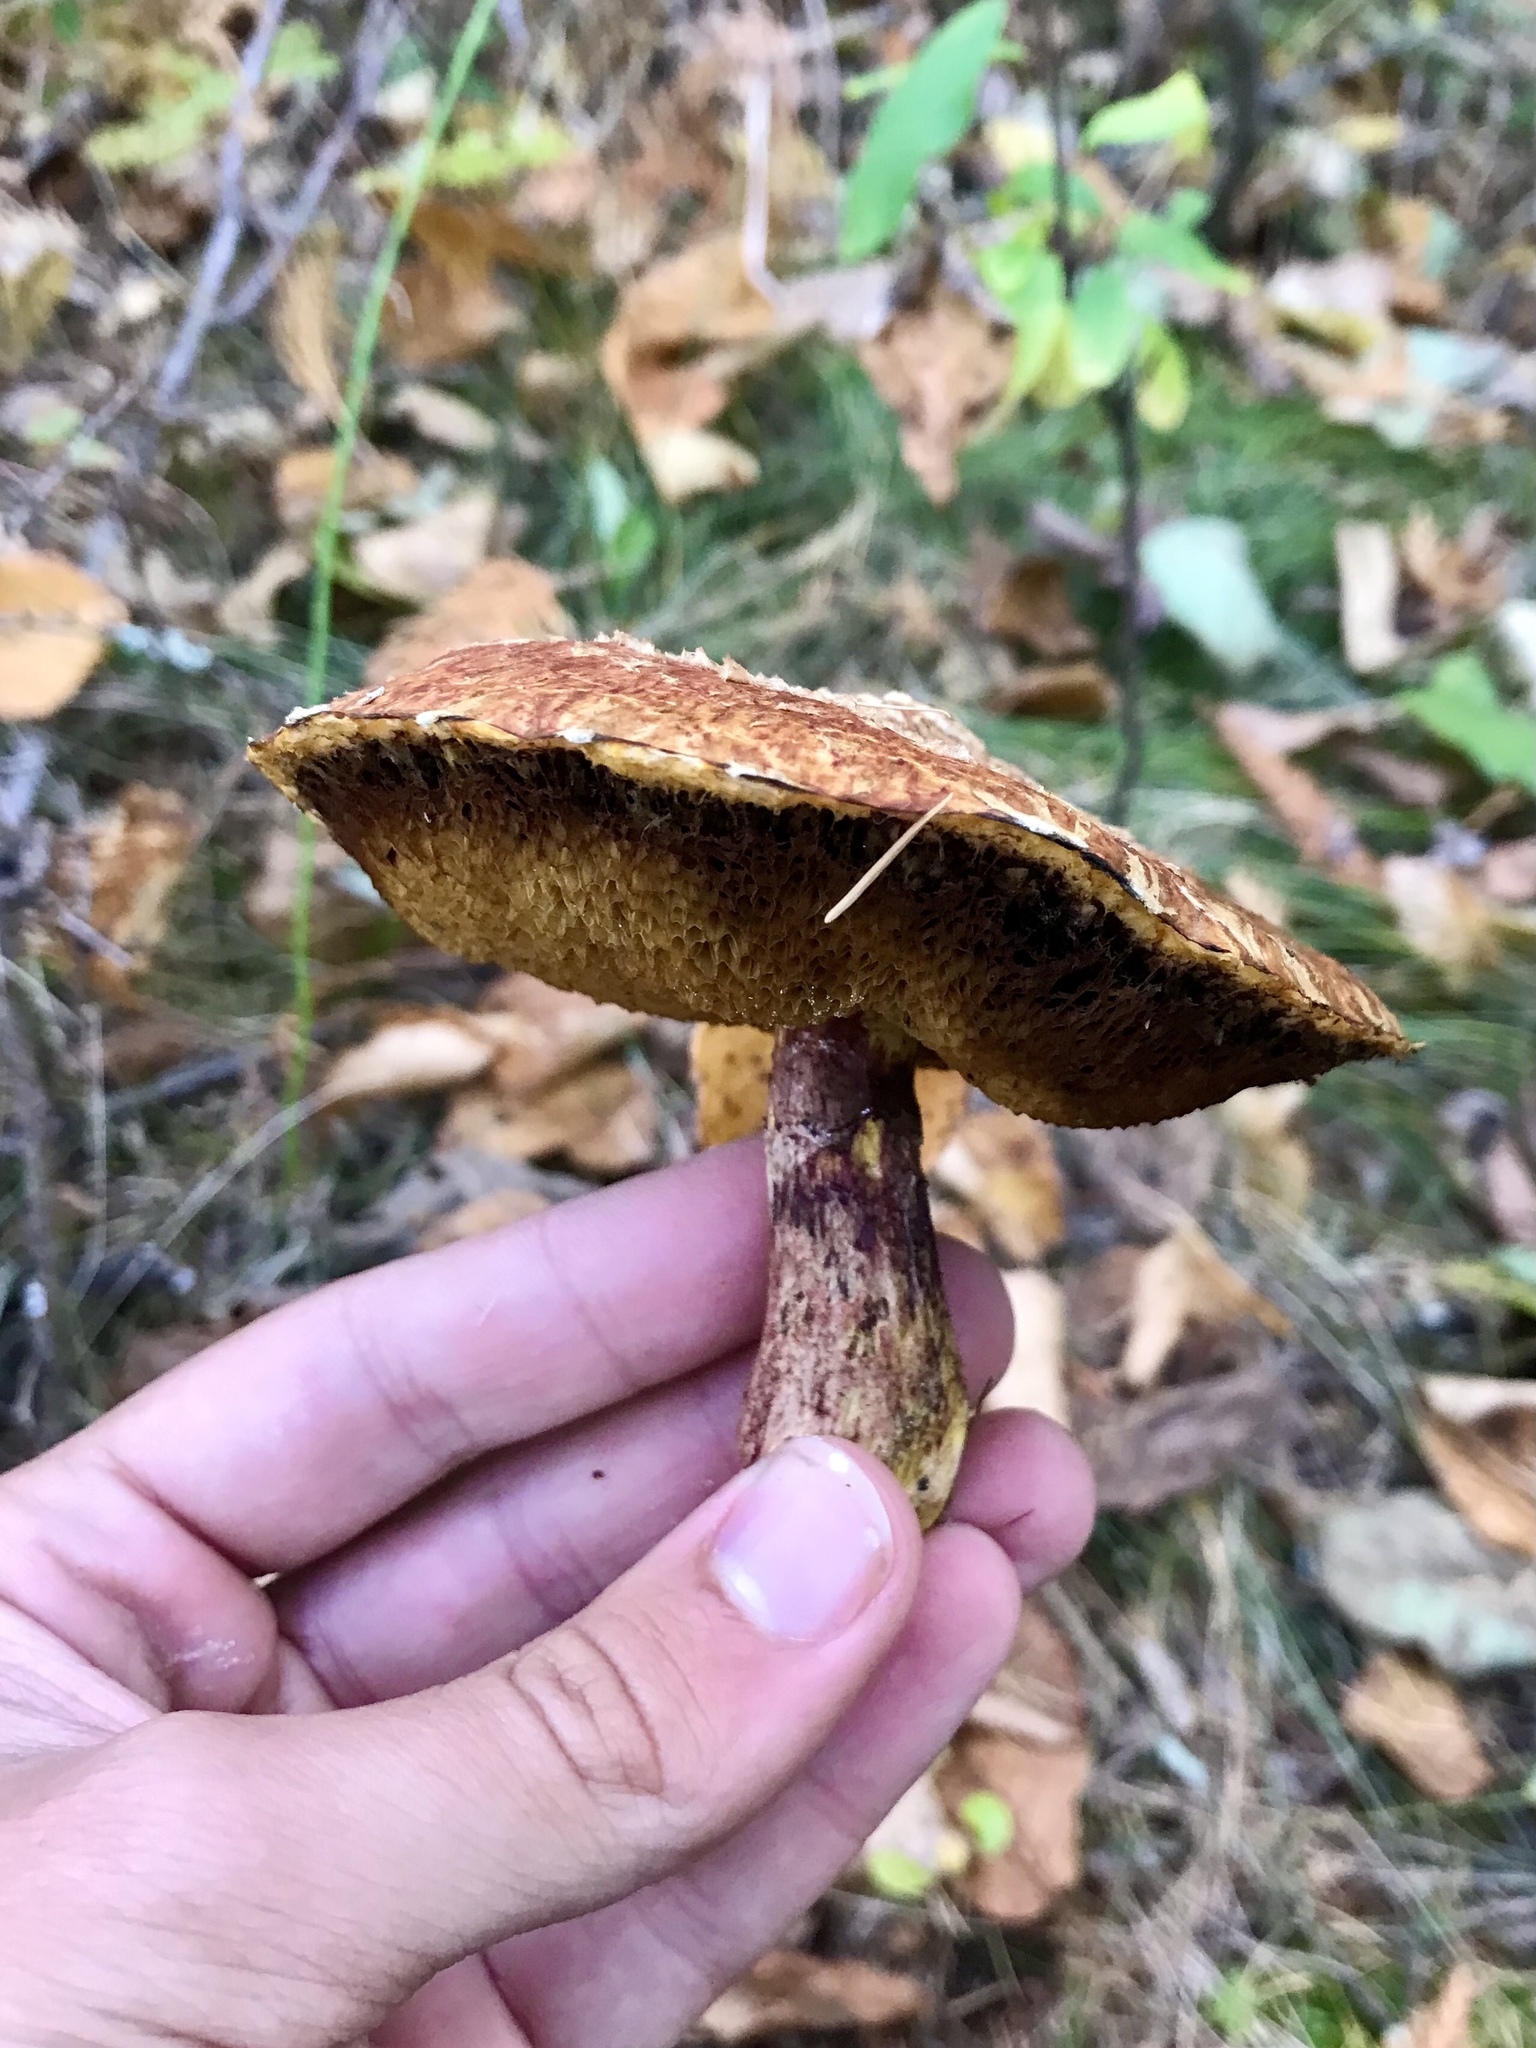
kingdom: Fungi
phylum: Basidiomycota
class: Agaricomycetes
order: Boletales
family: Suillaceae
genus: Boletinus
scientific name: Boletinus spectabilis
